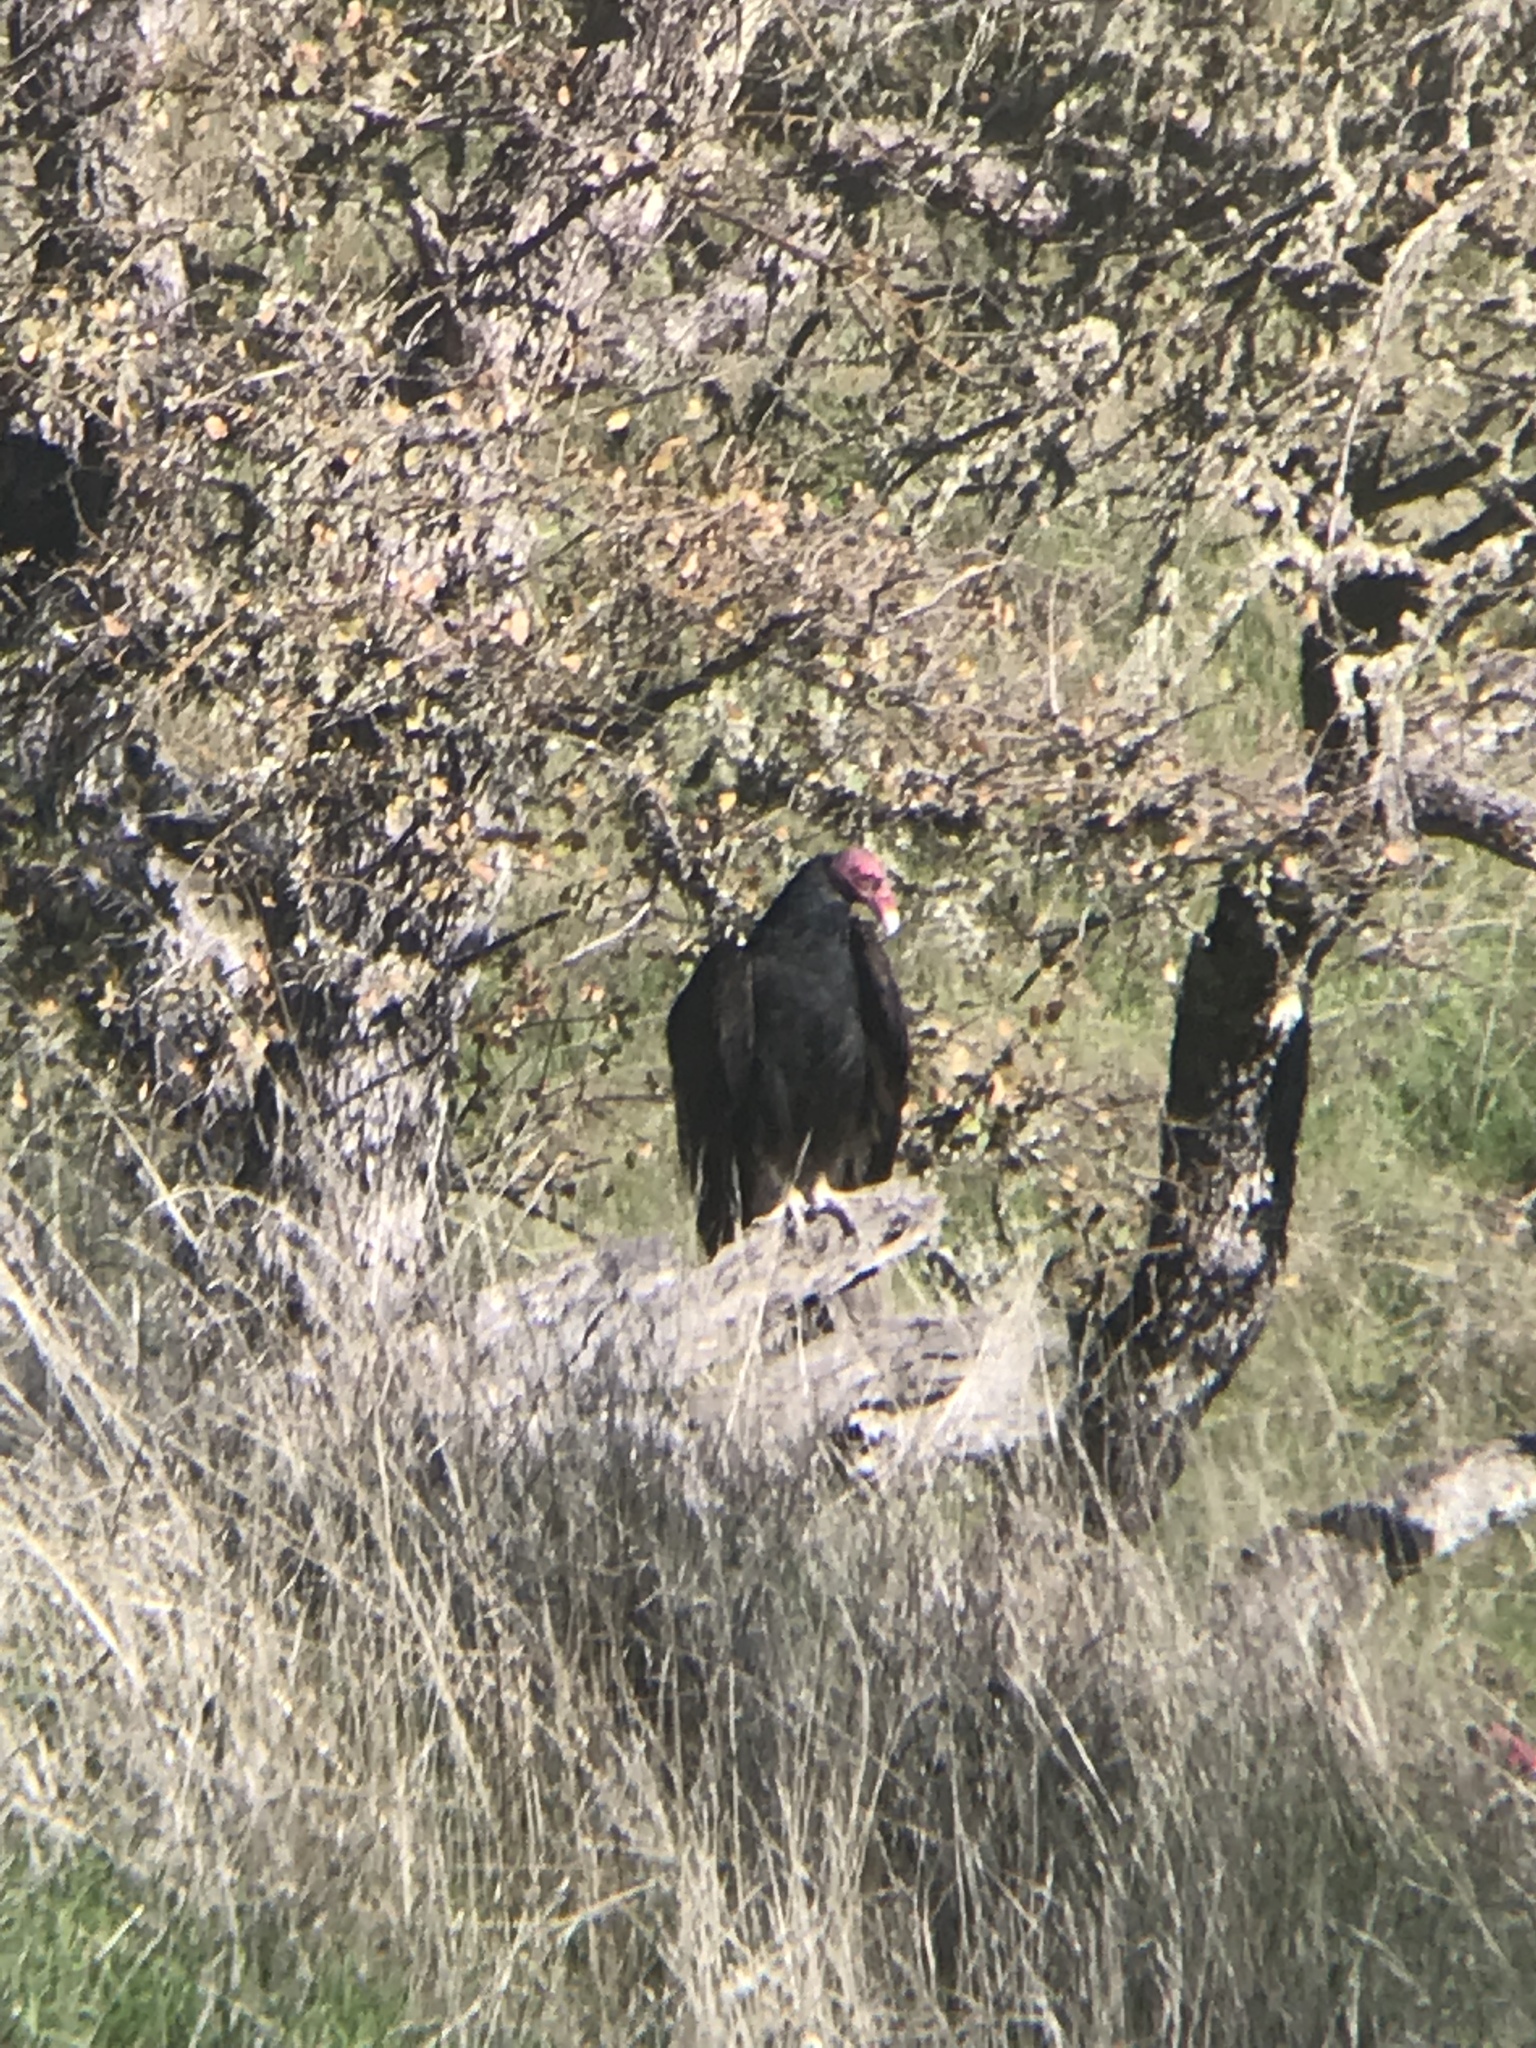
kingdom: Animalia
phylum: Chordata
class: Aves
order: Accipitriformes
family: Cathartidae
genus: Cathartes
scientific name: Cathartes aura
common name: Turkey vulture
